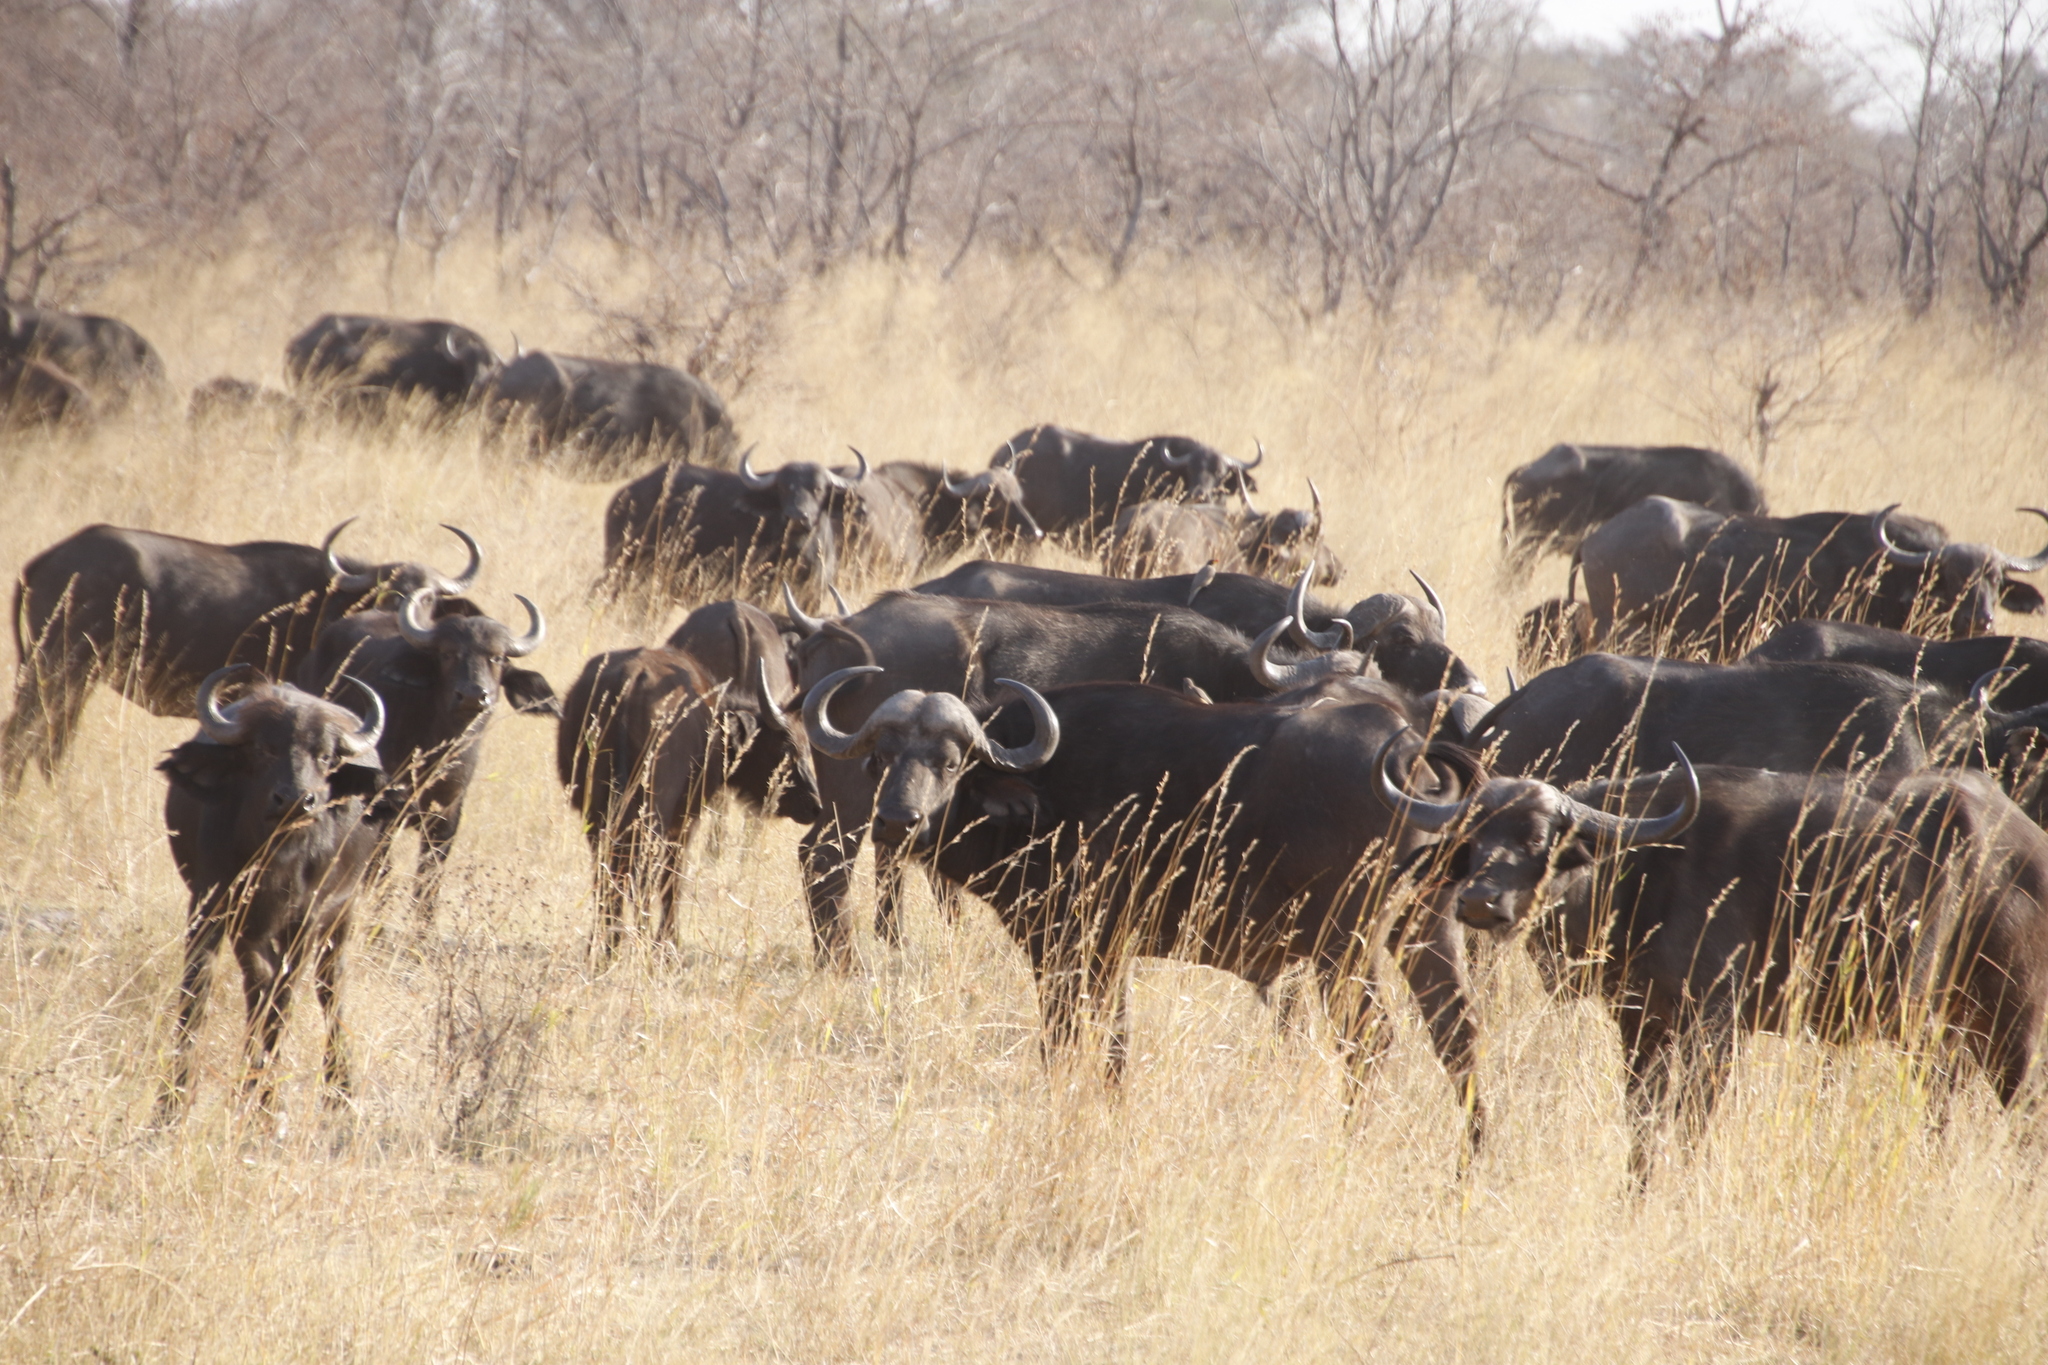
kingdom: Animalia
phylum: Chordata
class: Mammalia
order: Artiodactyla
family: Bovidae
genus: Syncerus
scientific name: Syncerus caffer
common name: African buffalo
